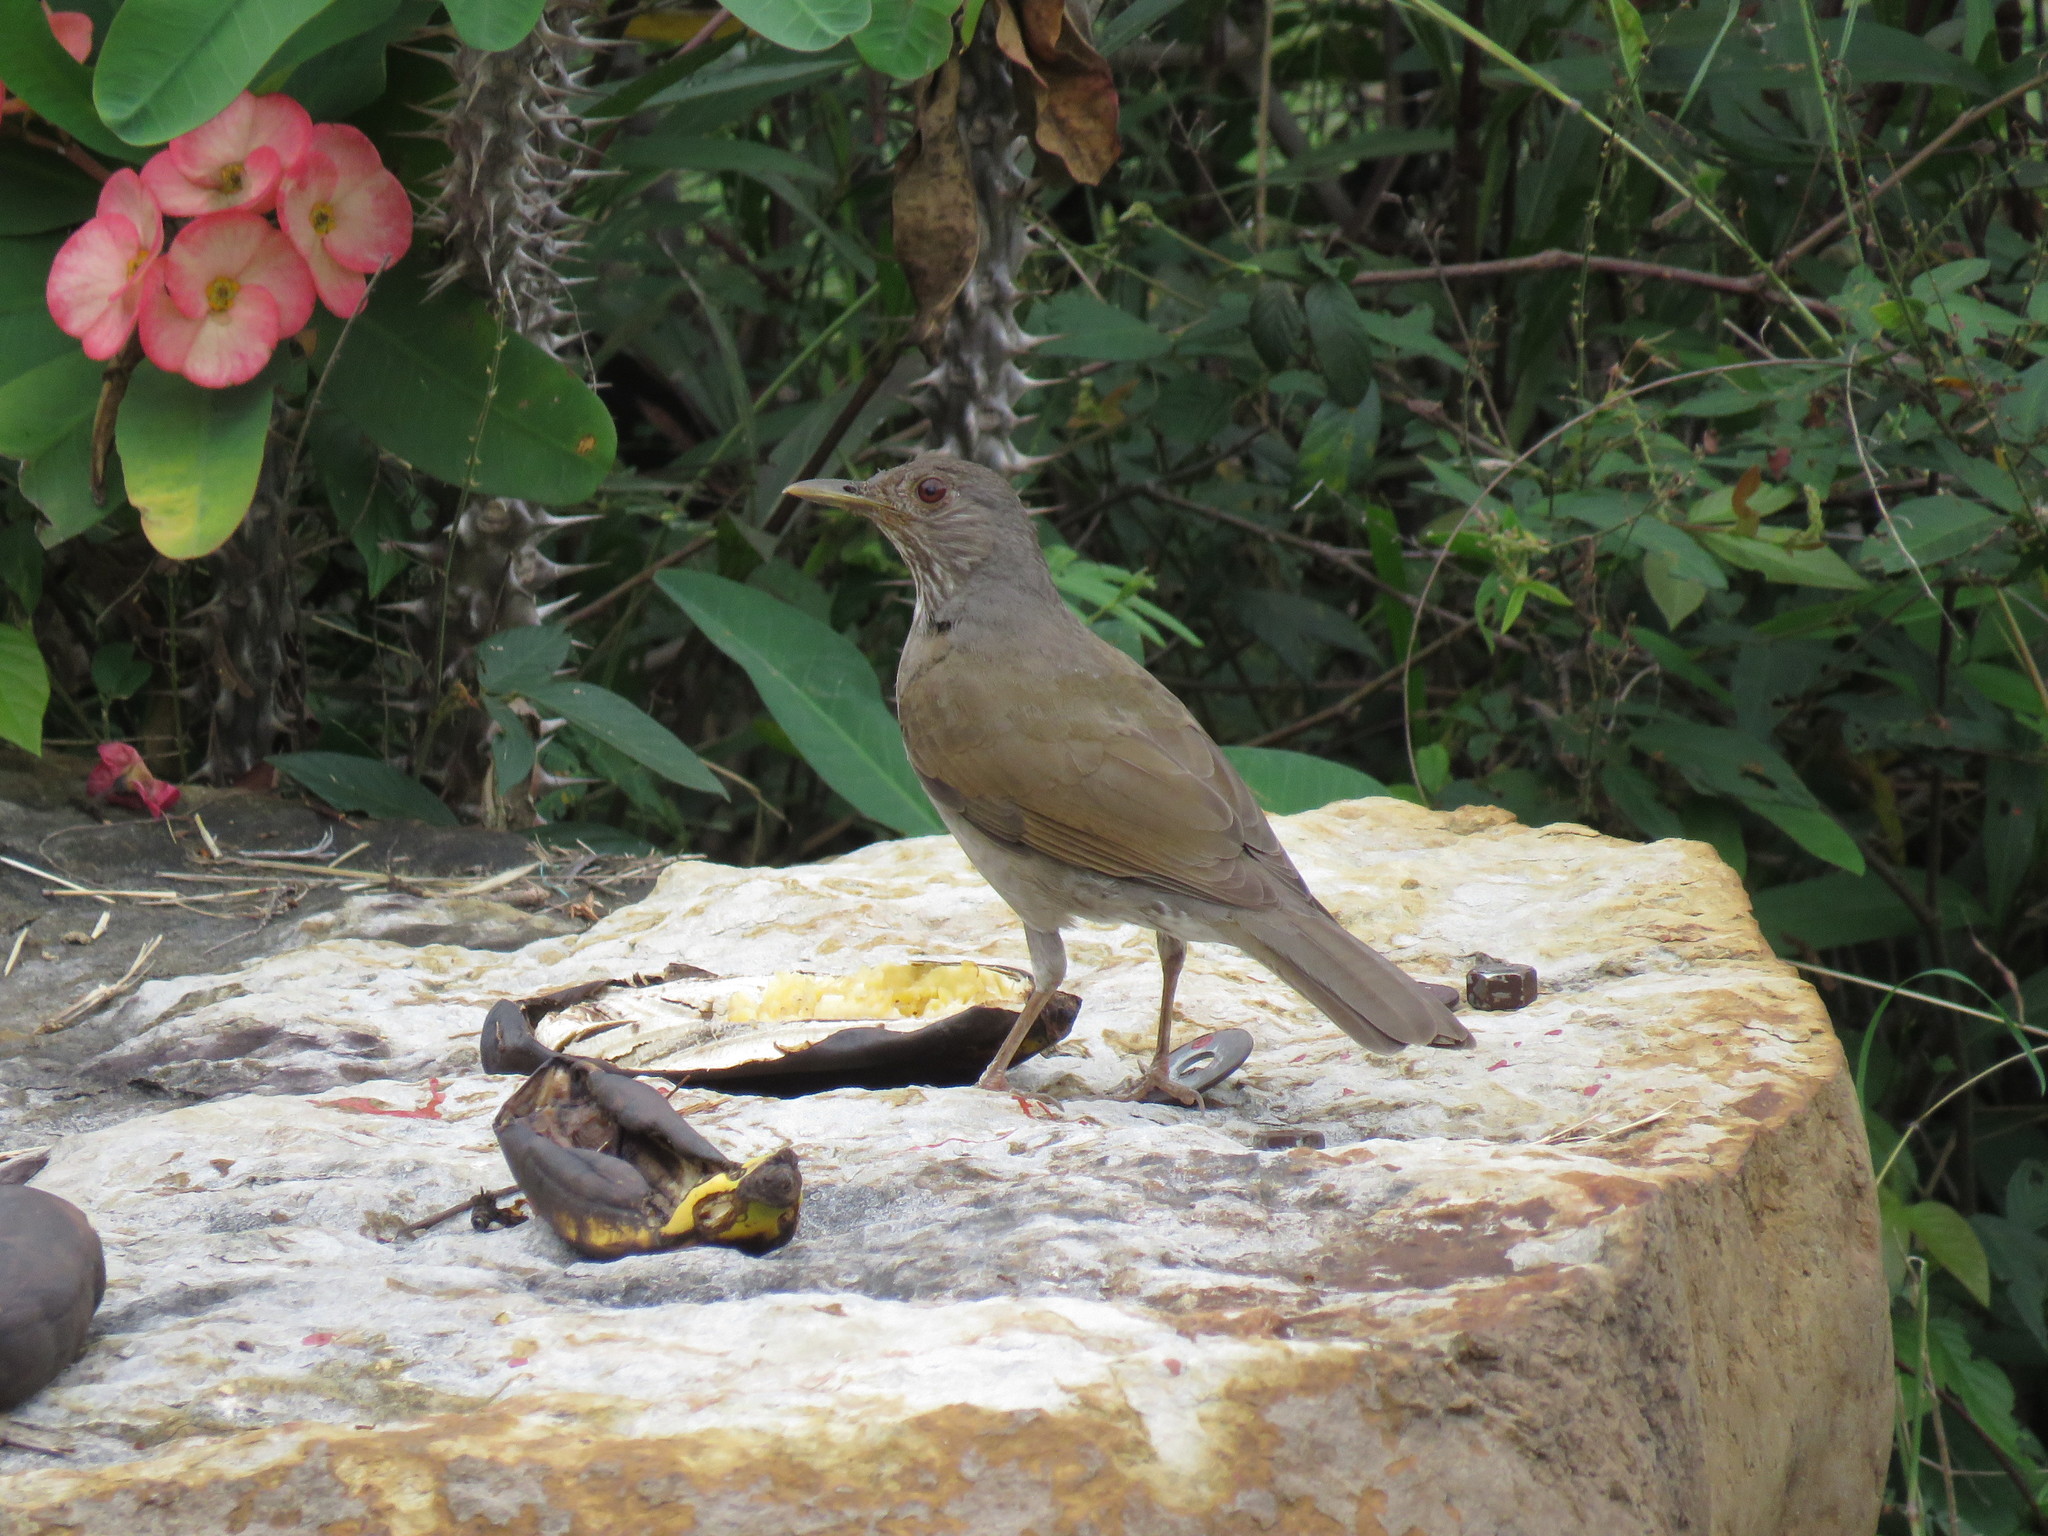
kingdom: Animalia
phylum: Chordata
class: Aves
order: Passeriformes
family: Turdidae
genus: Turdus
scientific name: Turdus leucomelas
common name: Pale-breasted thrush
